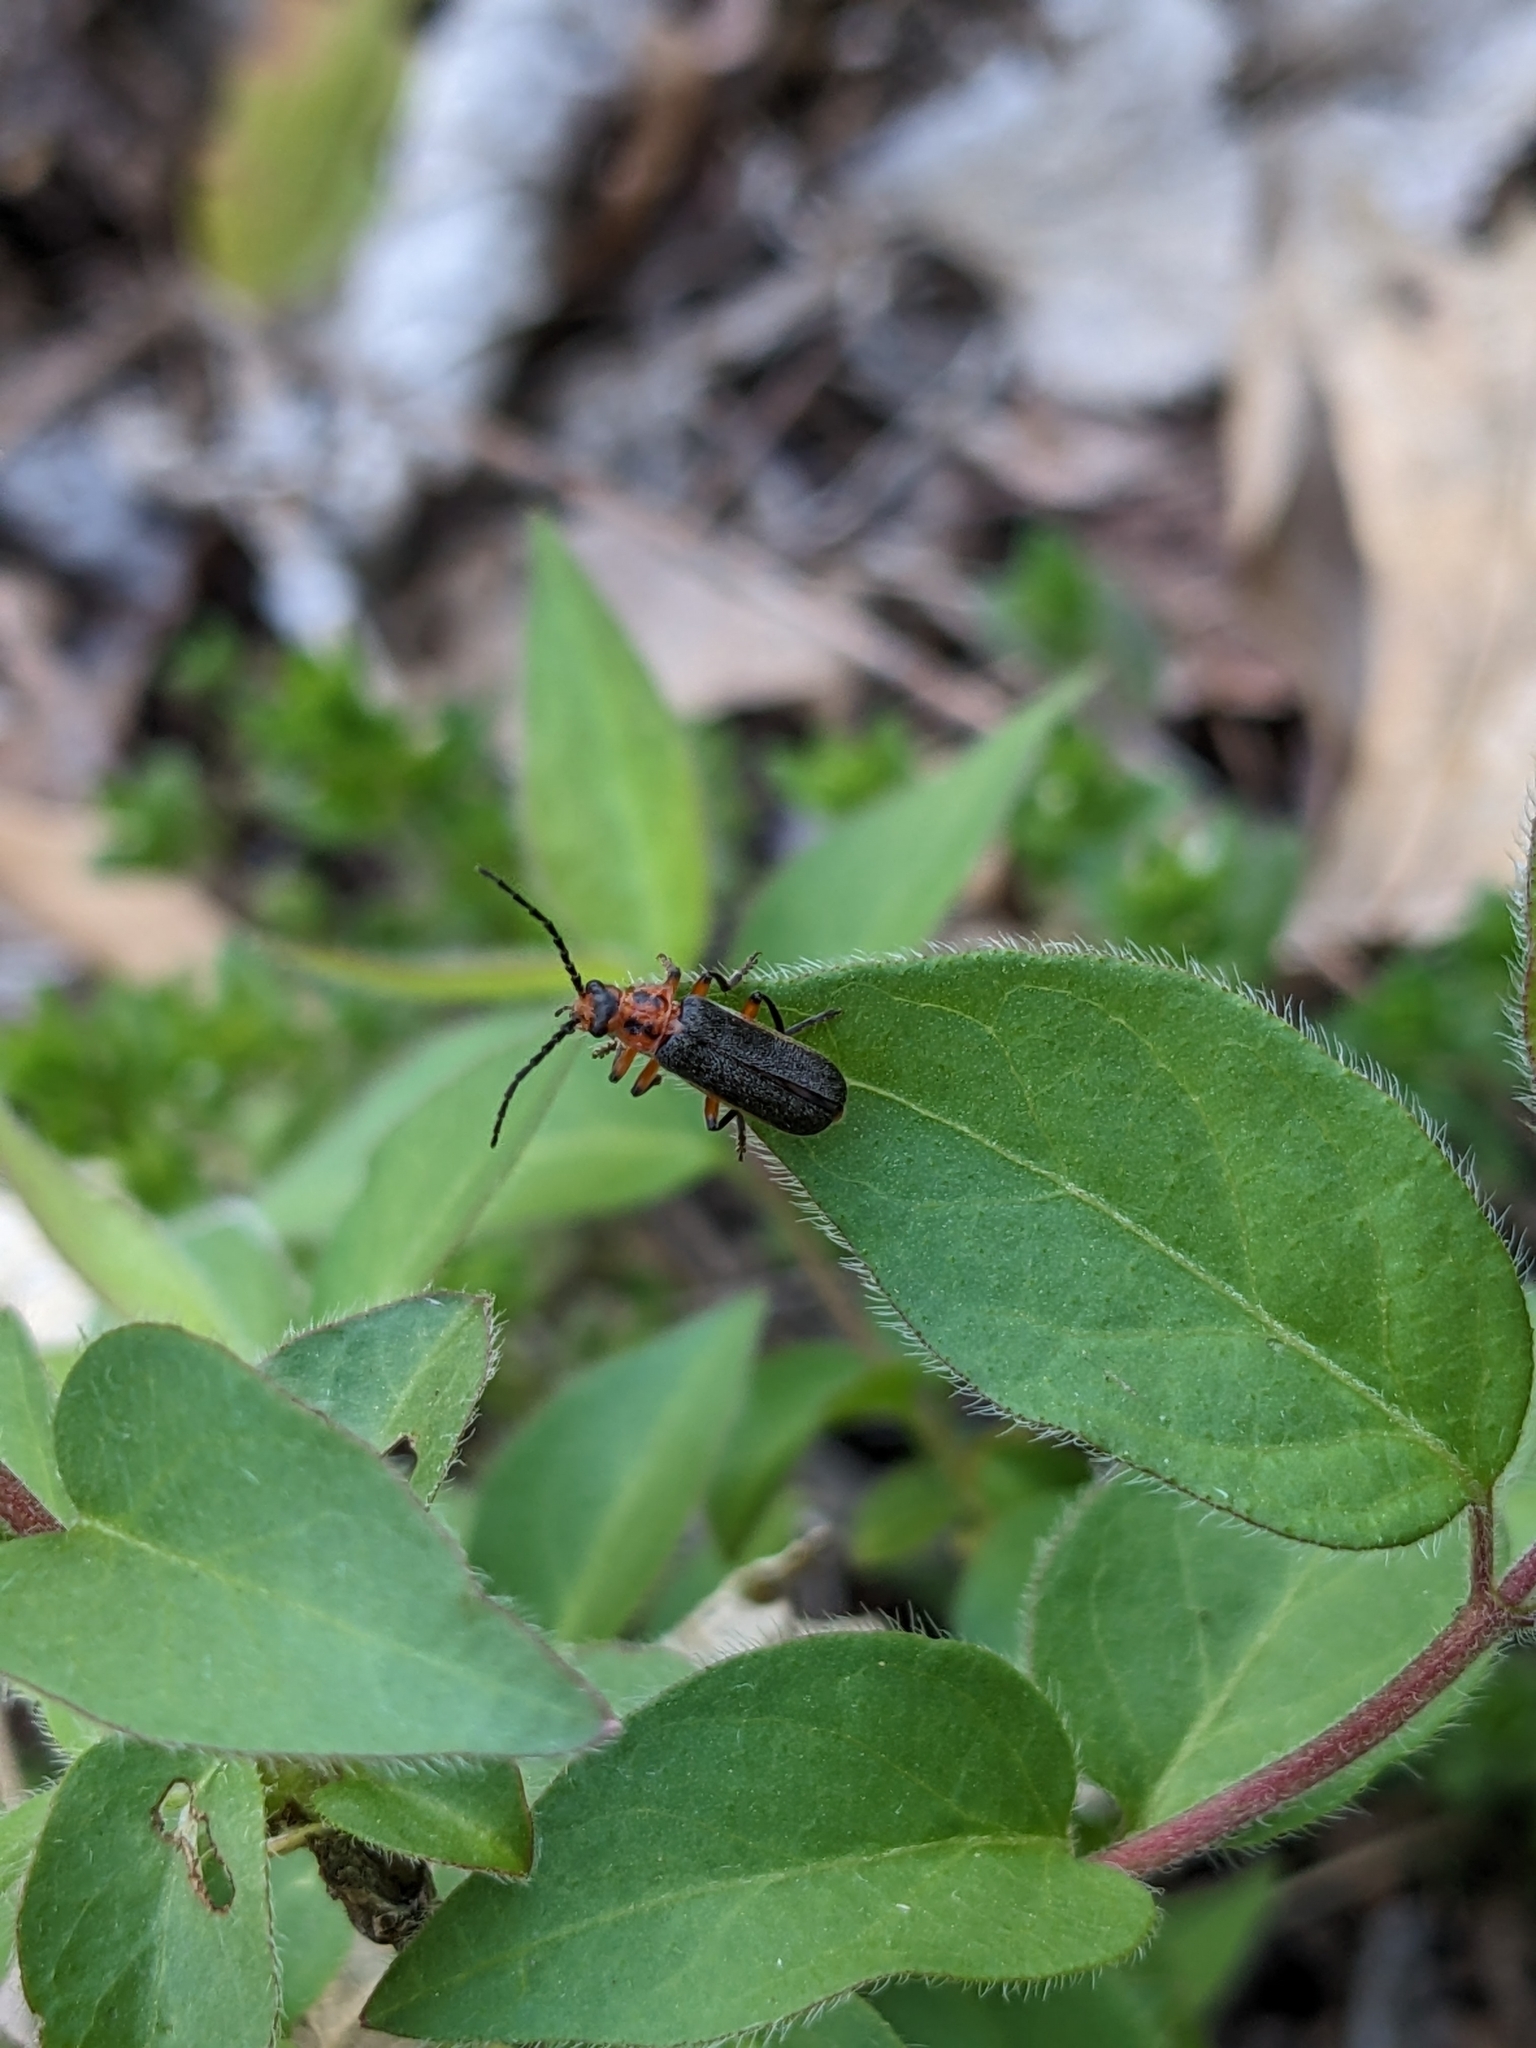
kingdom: Animalia
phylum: Arthropoda
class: Insecta
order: Coleoptera
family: Cantharidae
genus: Atalantycha
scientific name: Atalantycha bilineata
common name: Two-lined leatherwing
